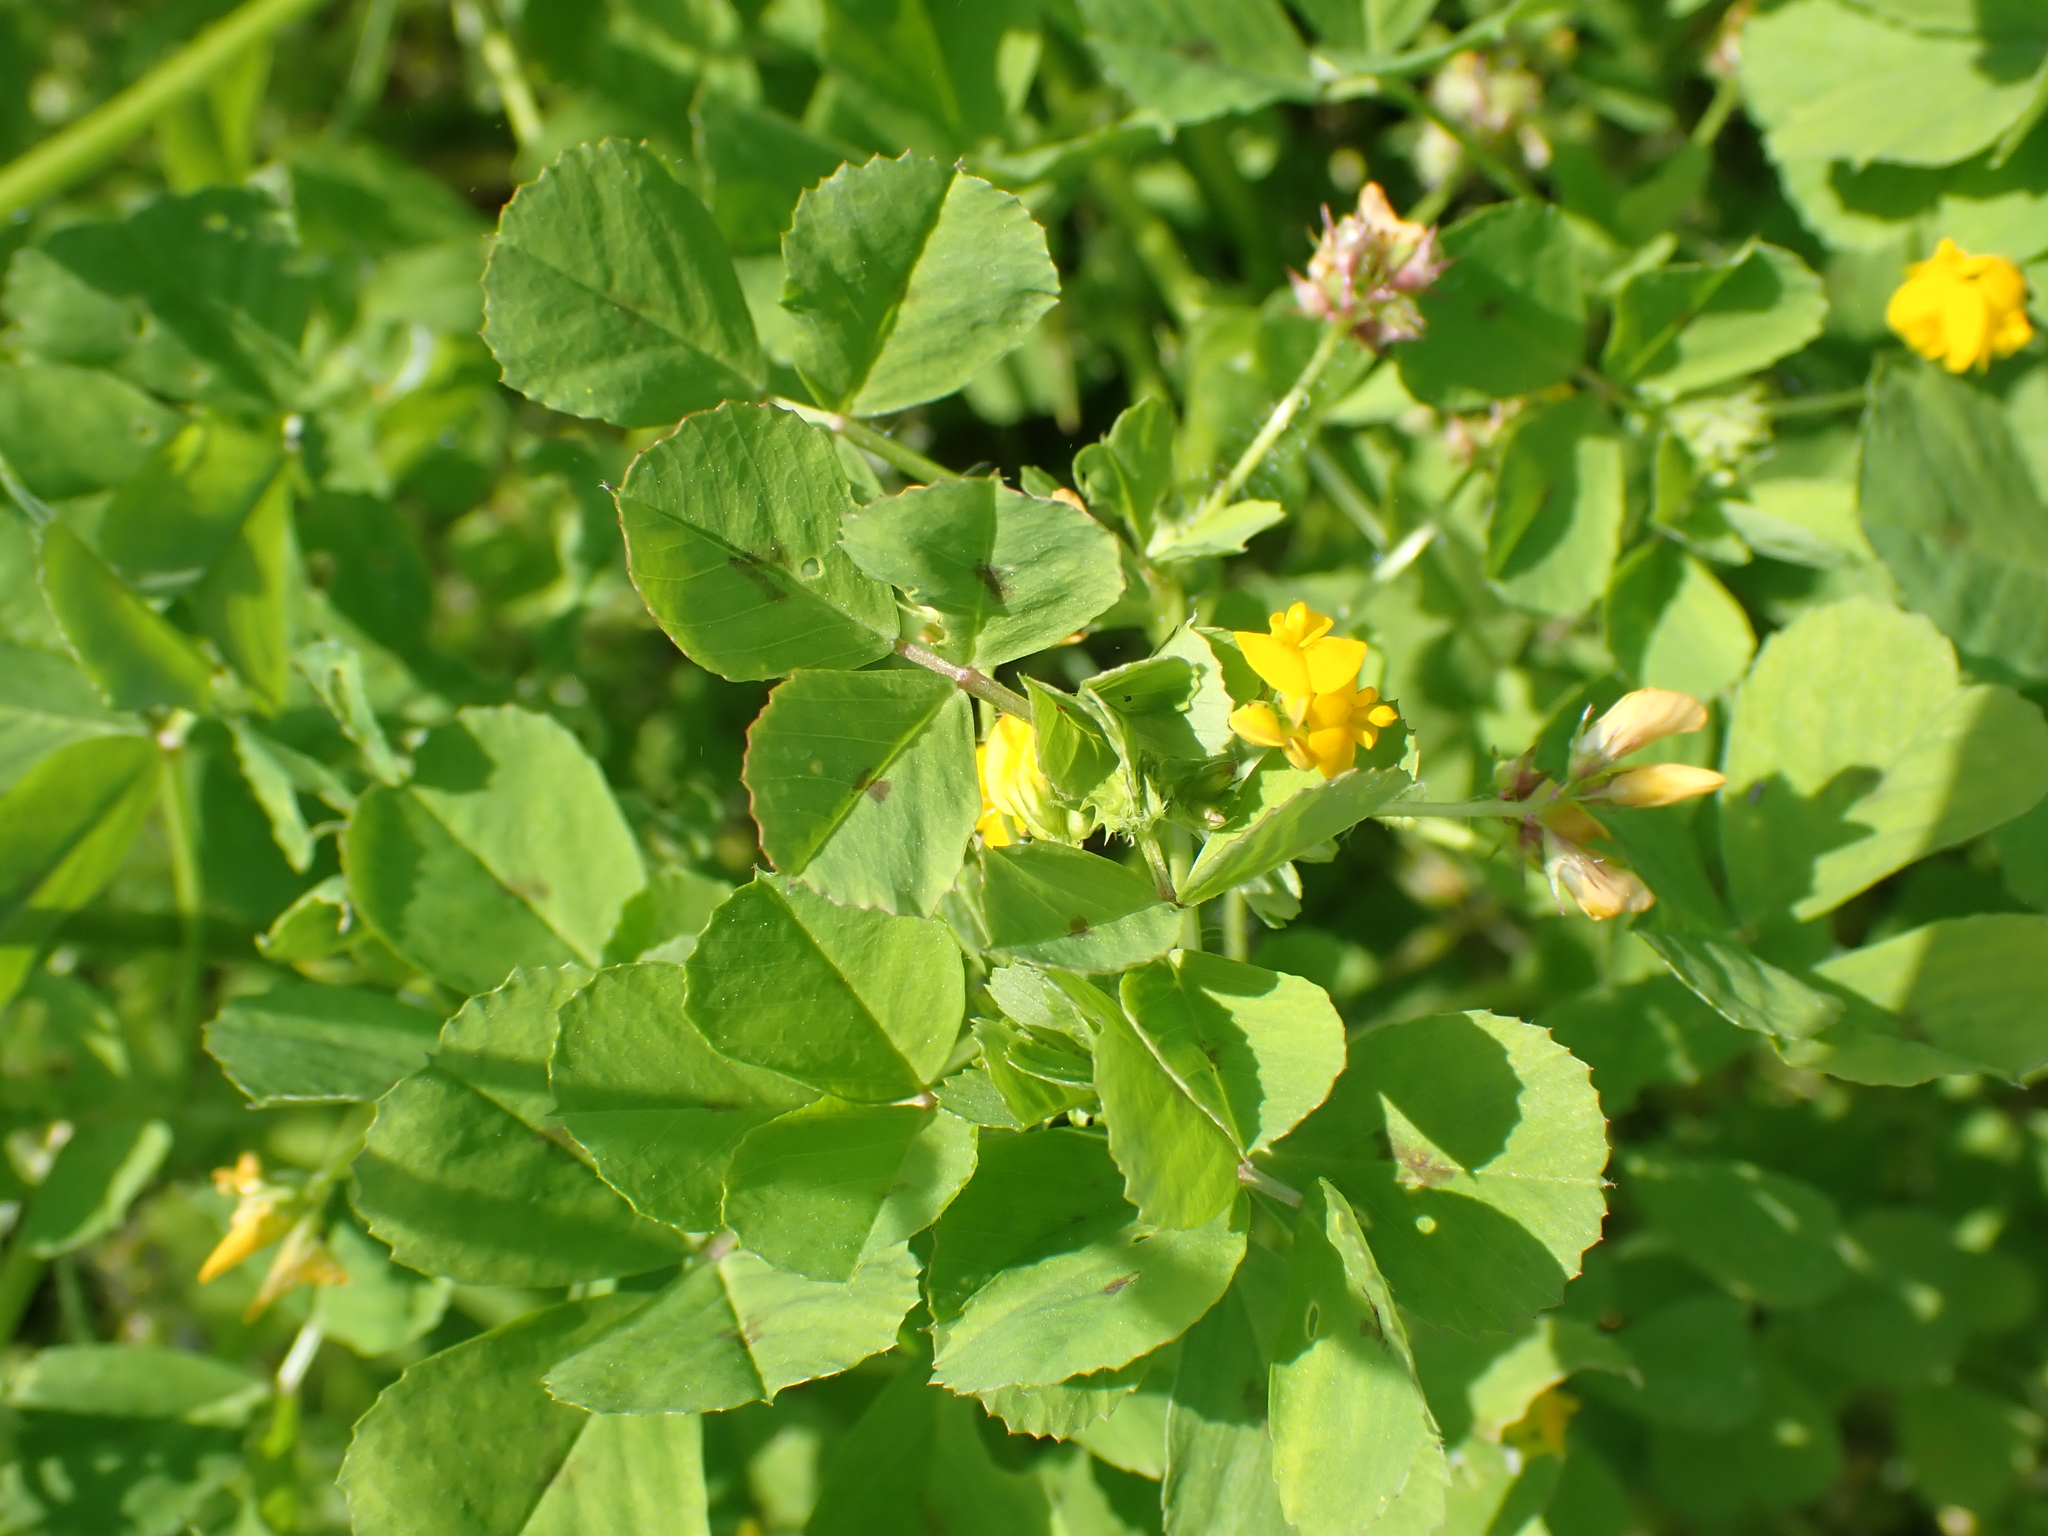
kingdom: Plantae
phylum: Tracheophyta
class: Magnoliopsida
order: Fabales
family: Fabaceae
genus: Medicago
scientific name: Medicago arabica
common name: Spotted medick
